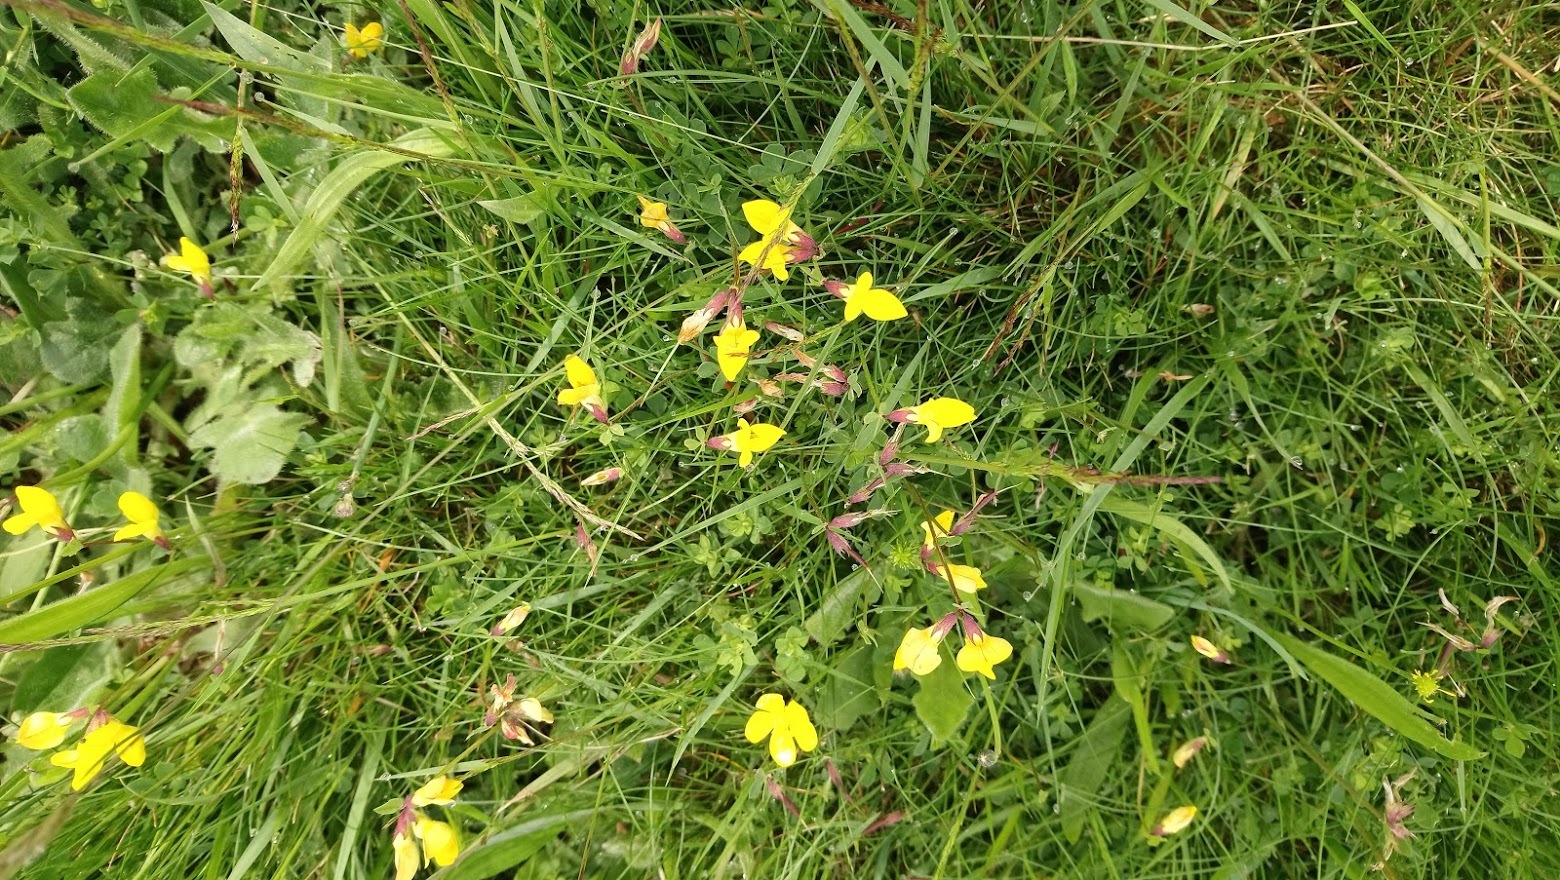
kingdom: Plantae
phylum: Tracheophyta
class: Magnoliopsida
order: Fabales
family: Fabaceae
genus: Lotus
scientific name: Lotus corniculatus
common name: Common bird's-foot-trefoil
